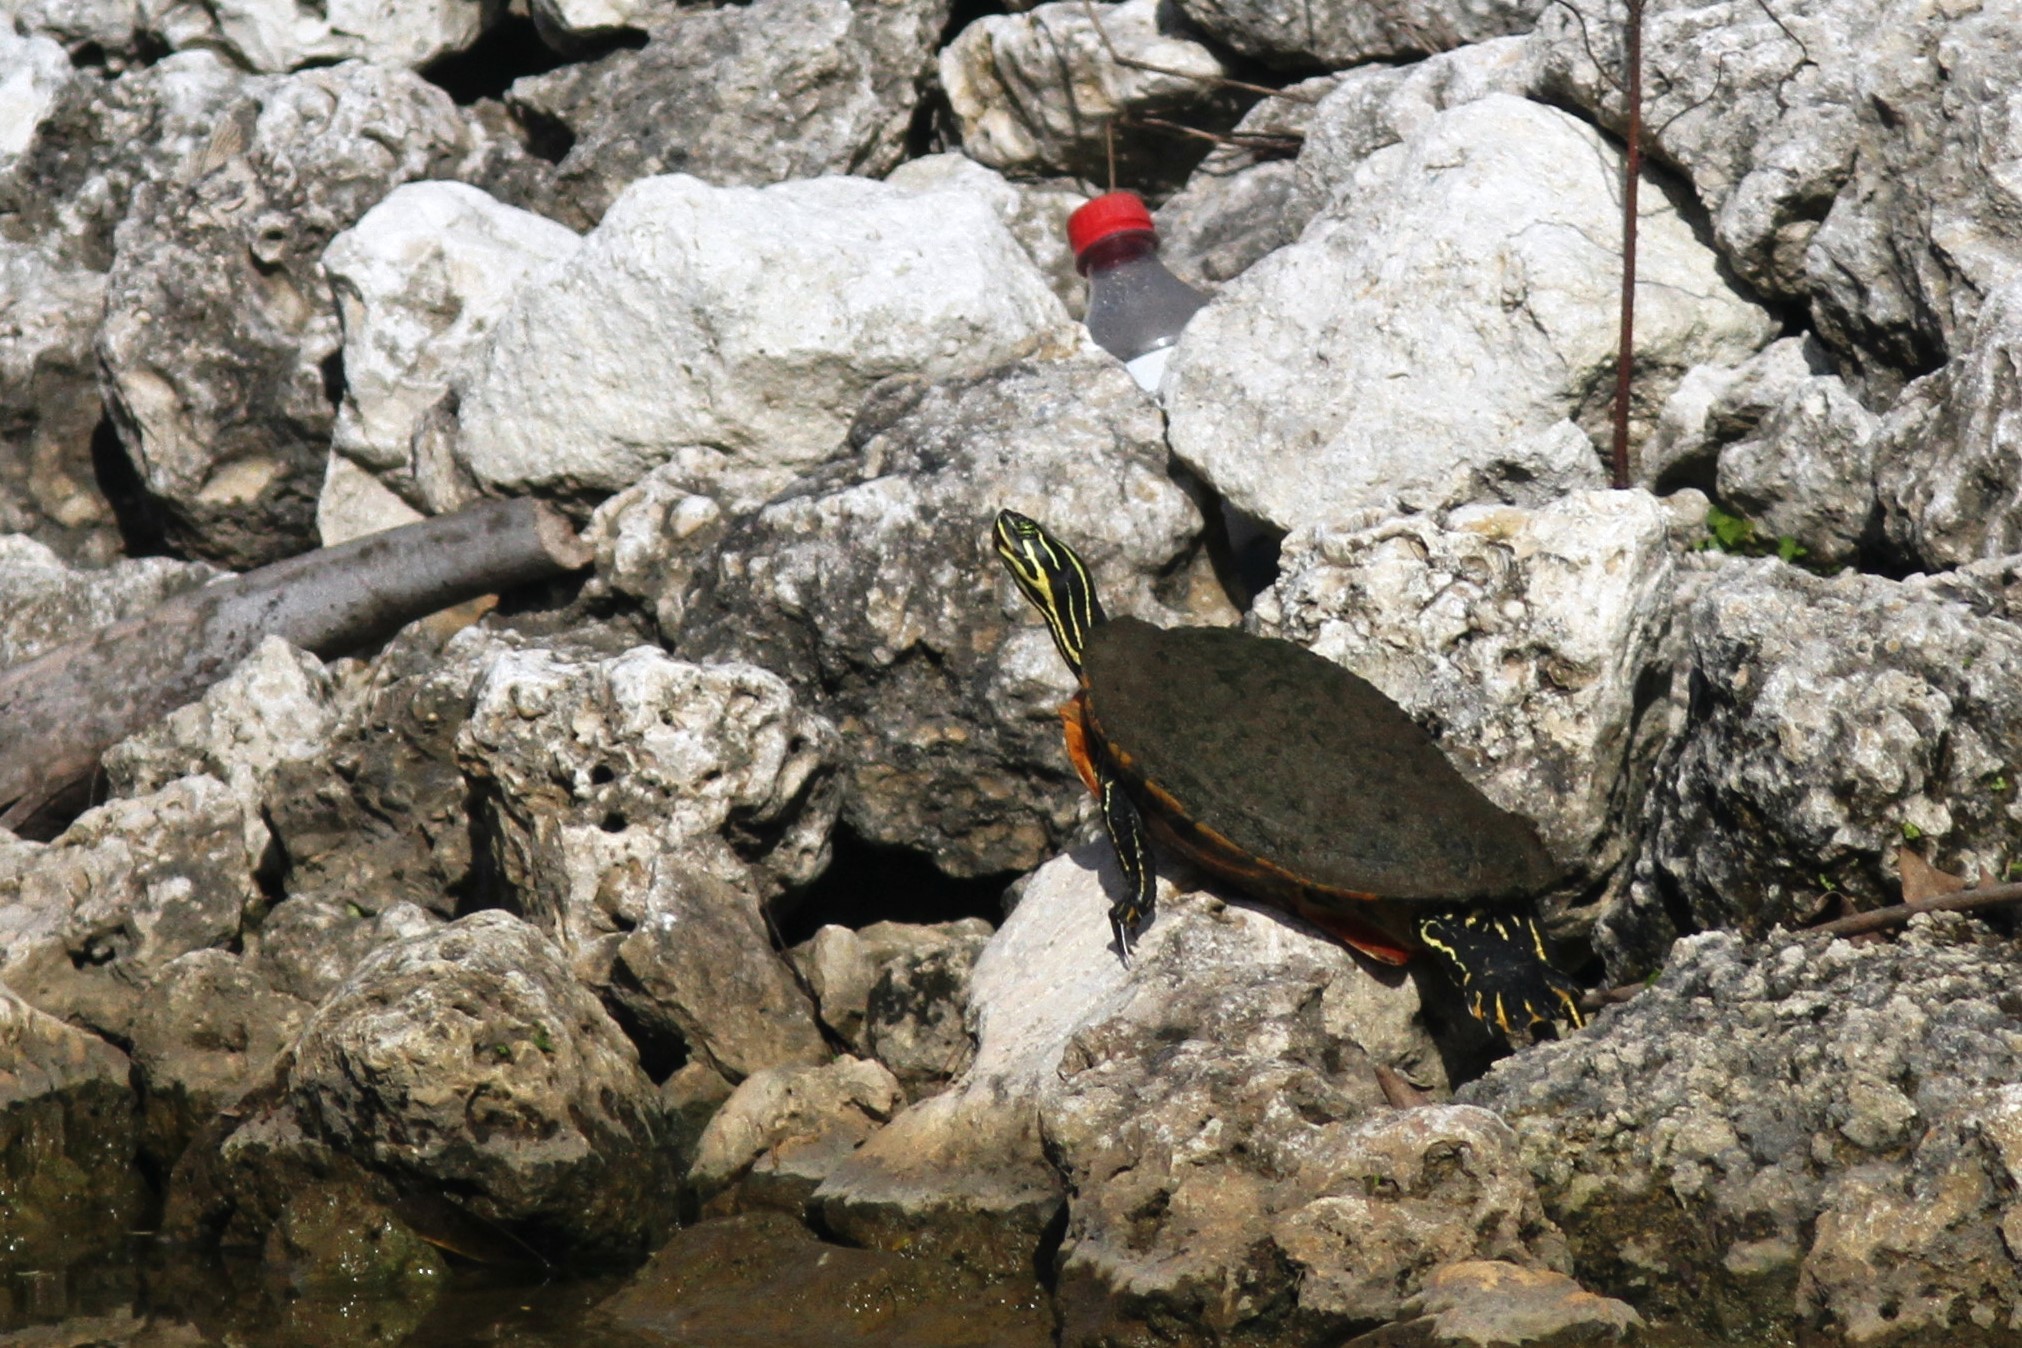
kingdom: Animalia
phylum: Chordata
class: Testudines
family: Emydidae
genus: Pseudemys
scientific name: Pseudemys nelsoni
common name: Florida red-bellied turtle
